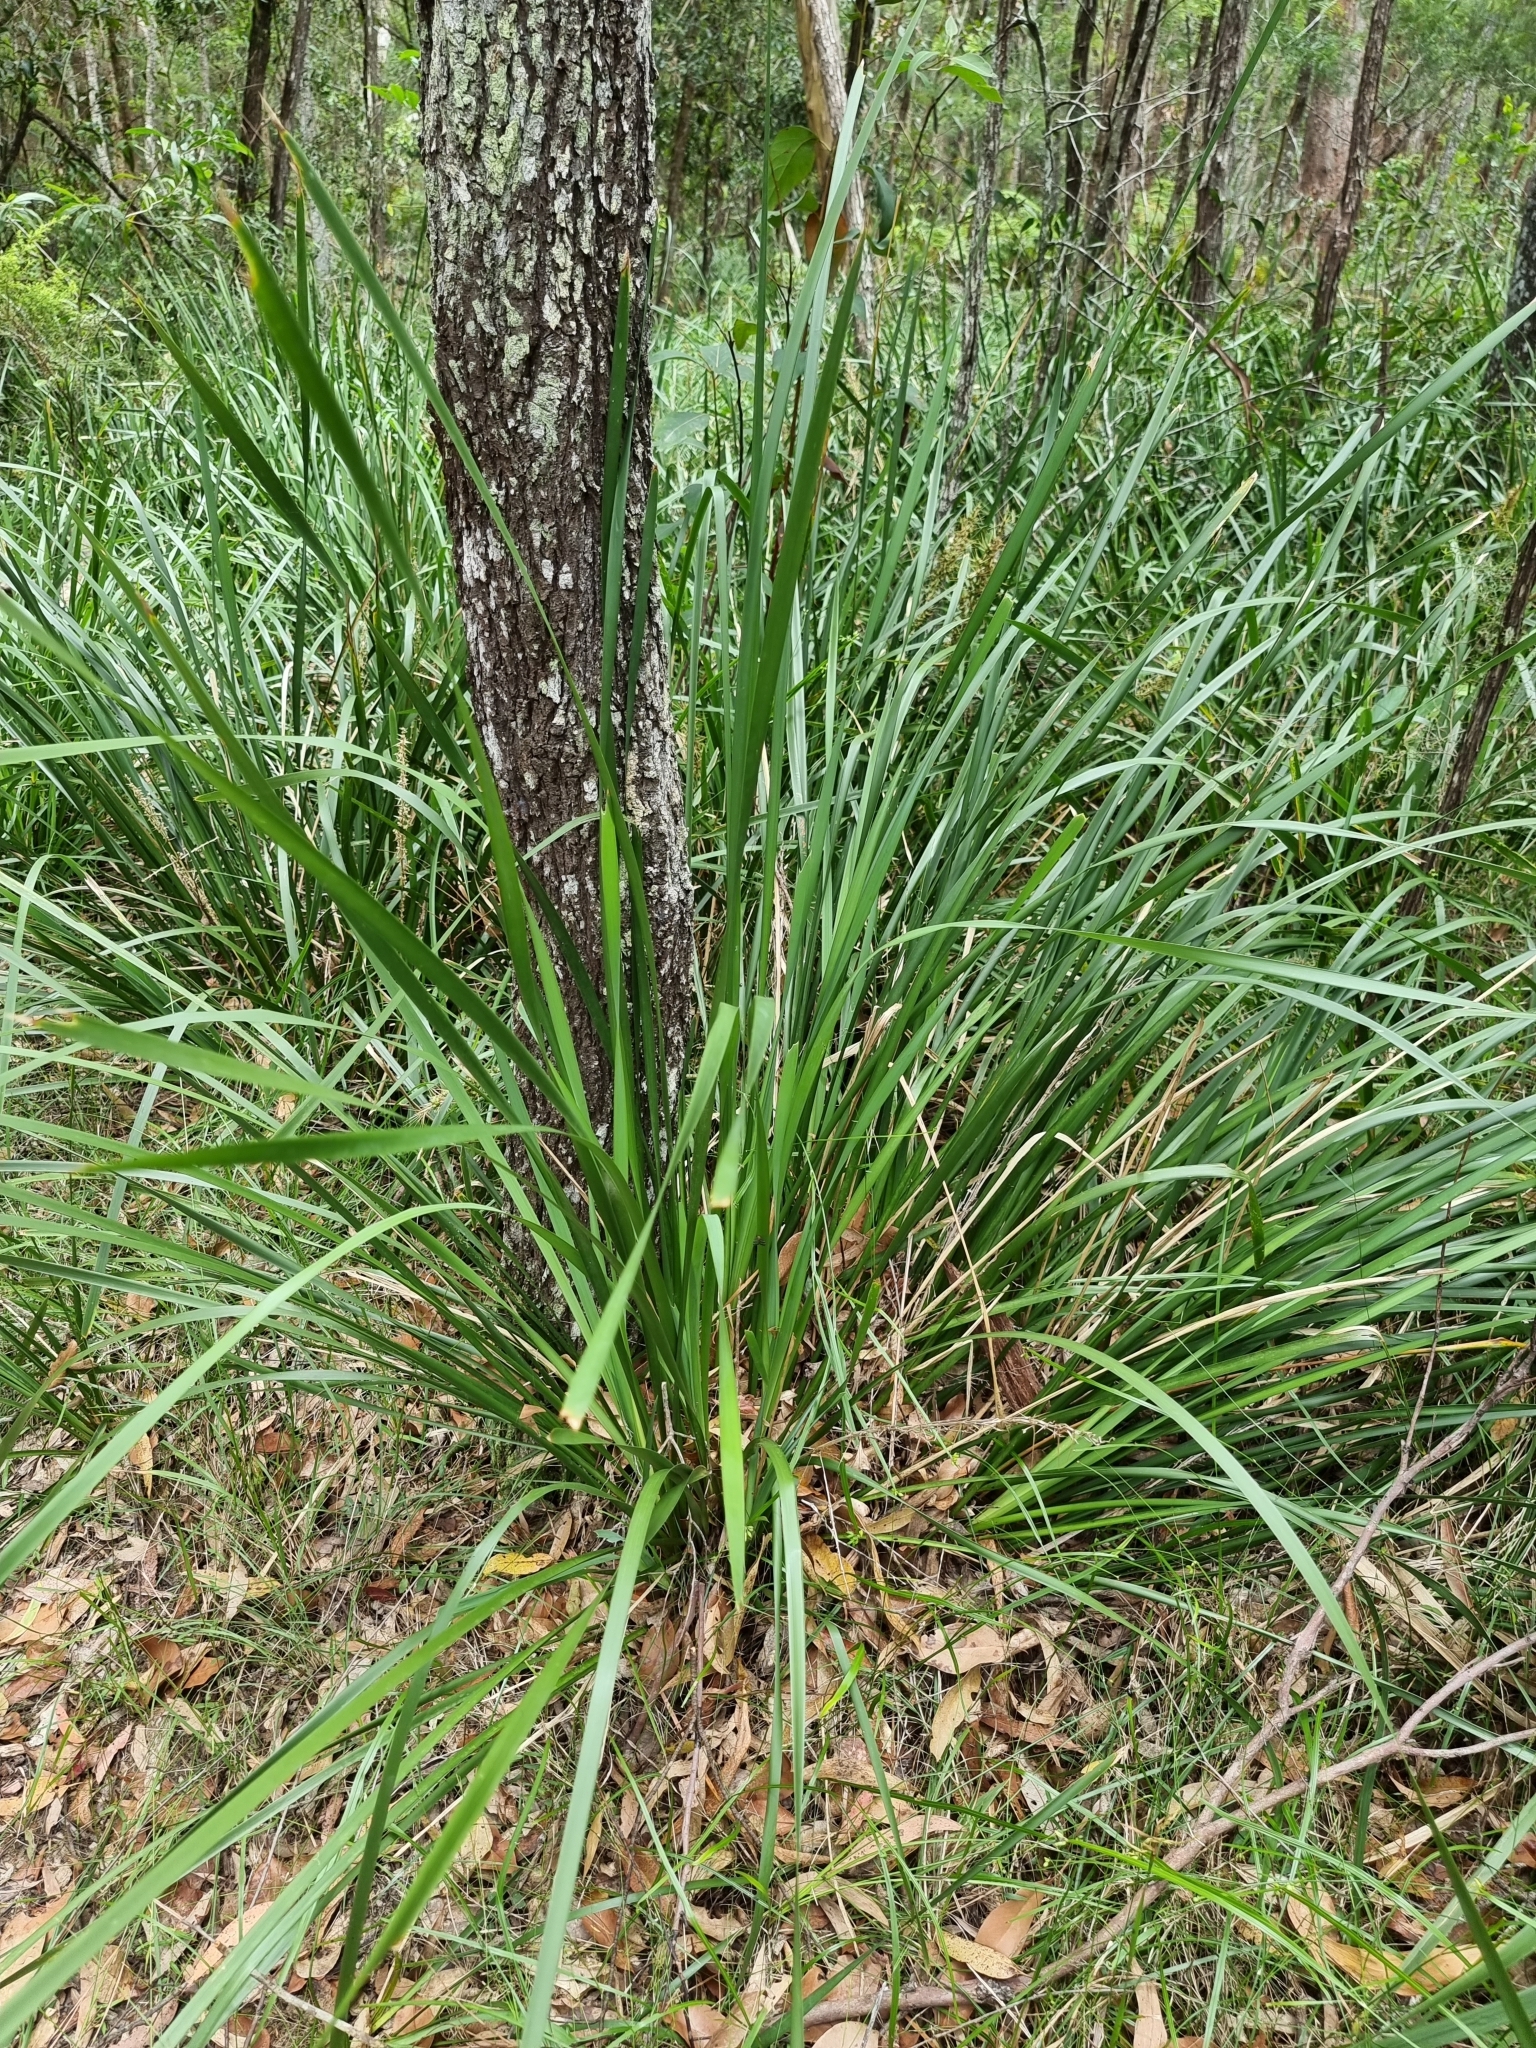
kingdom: Plantae
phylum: Tracheophyta
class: Liliopsida
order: Asparagales
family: Asphodelaceae
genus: Tricoryne
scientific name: Tricoryne anceps
